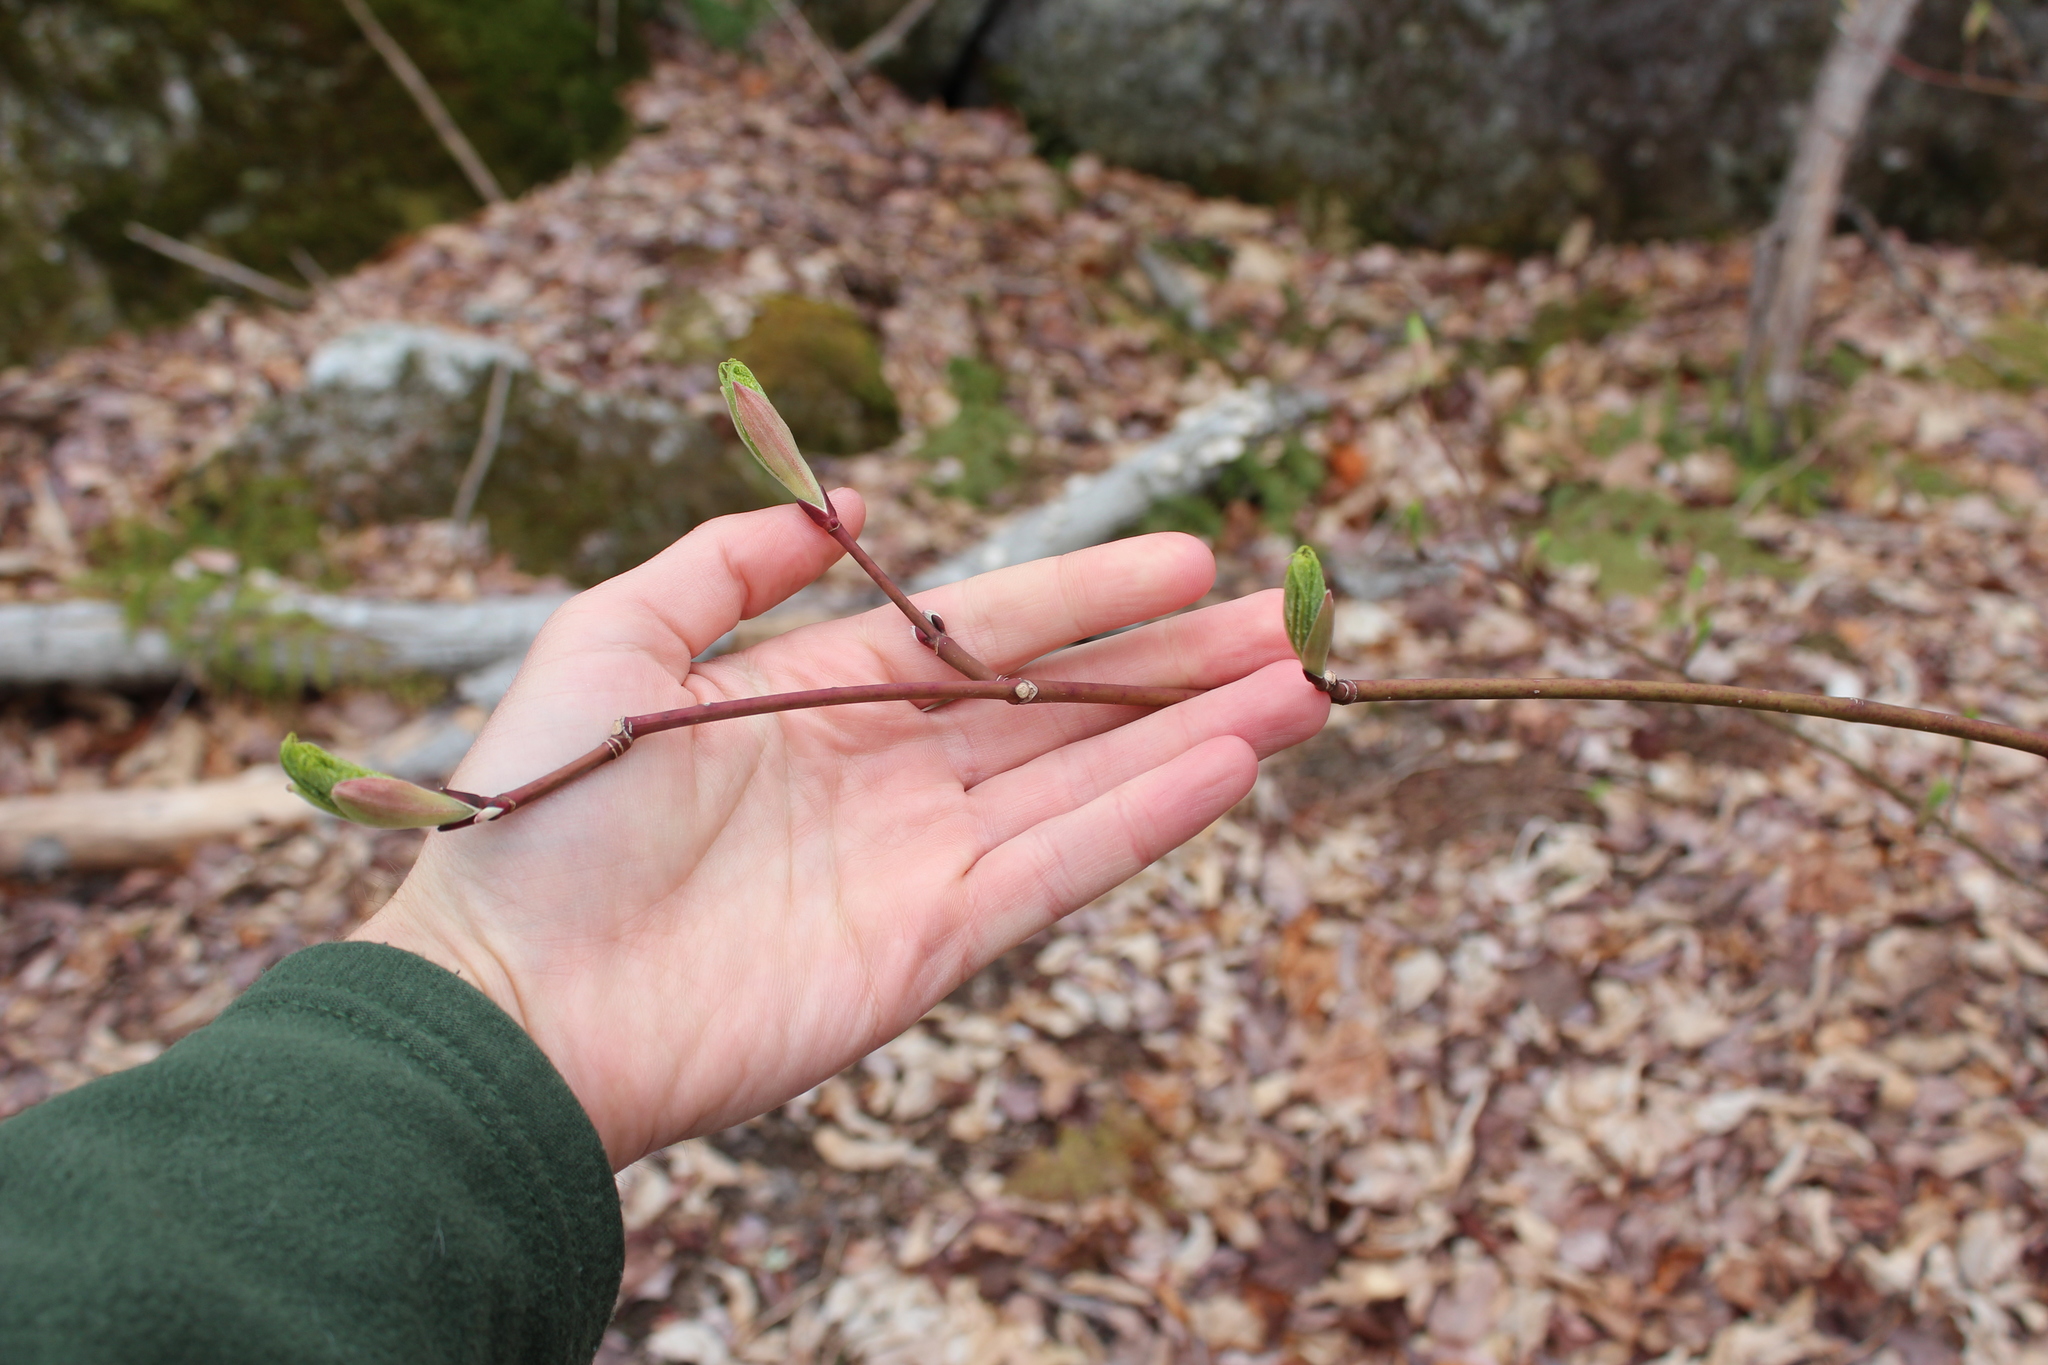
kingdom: Plantae
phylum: Tracheophyta
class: Magnoliopsida
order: Sapindales
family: Sapindaceae
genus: Acer
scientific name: Acer pensylvanicum
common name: Moosewood
